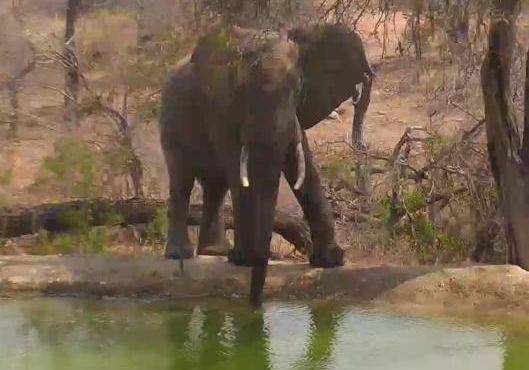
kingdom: Animalia
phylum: Chordata
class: Mammalia
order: Proboscidea
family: Elephantidae
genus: Loxodonta
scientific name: Loxodonta africana
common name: African elephant
